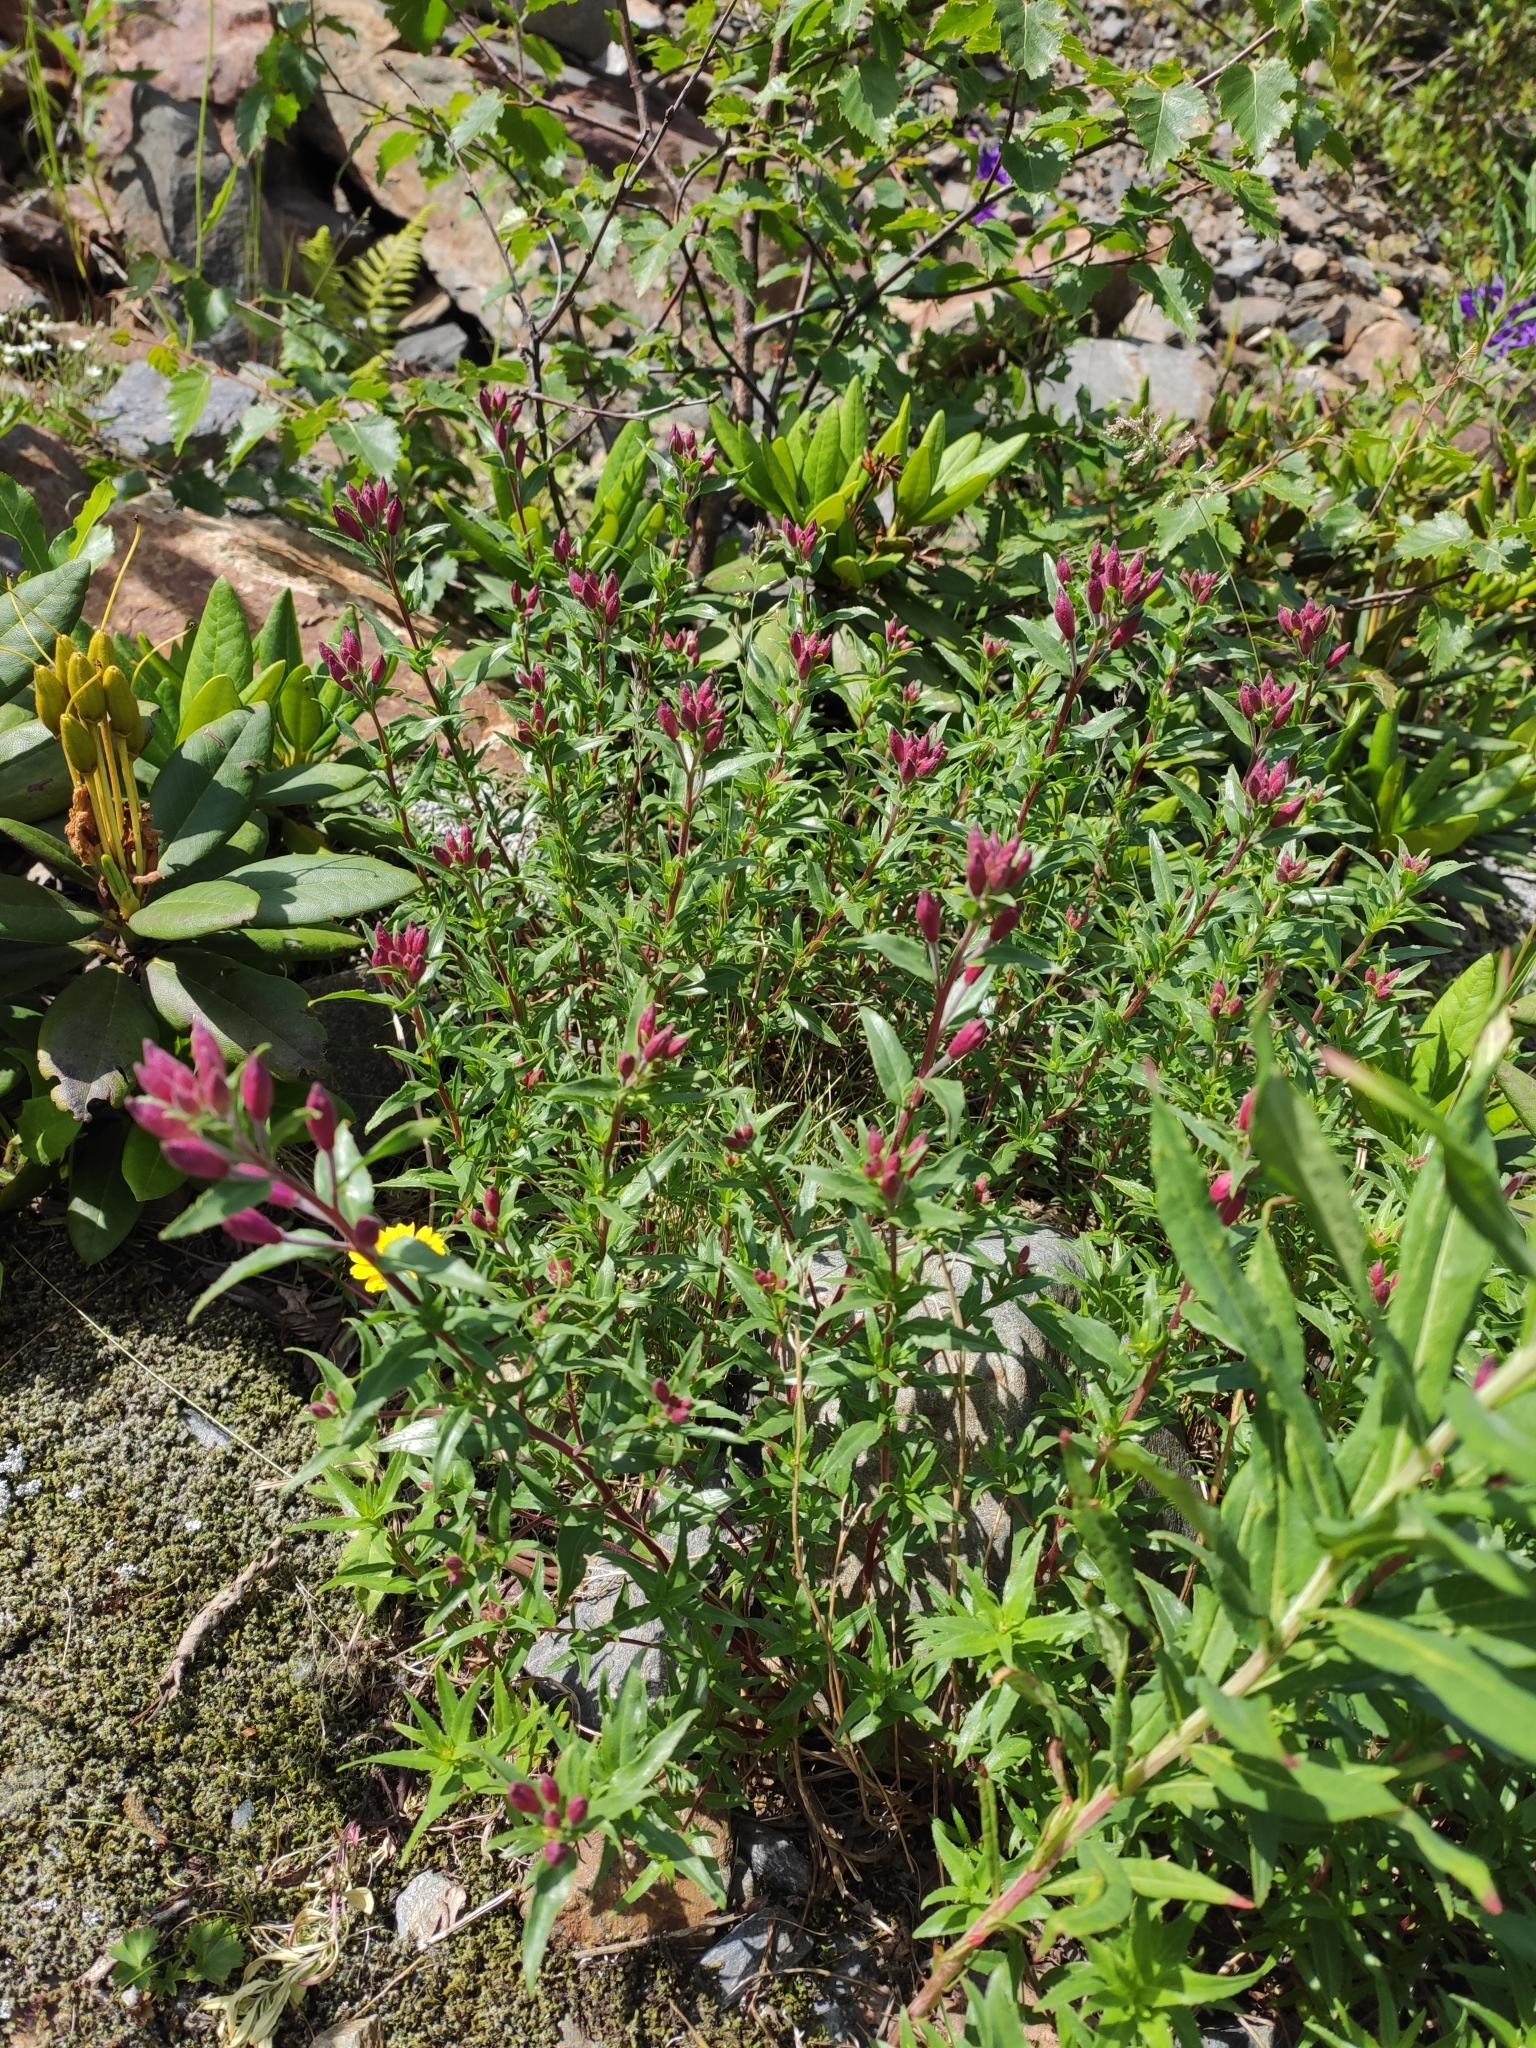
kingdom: Plantae
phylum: Tracheophyta
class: Magnoliopsida
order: Myrtales
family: Onagraceae
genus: Chamaenerion
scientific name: Chamaenerion colchicum
